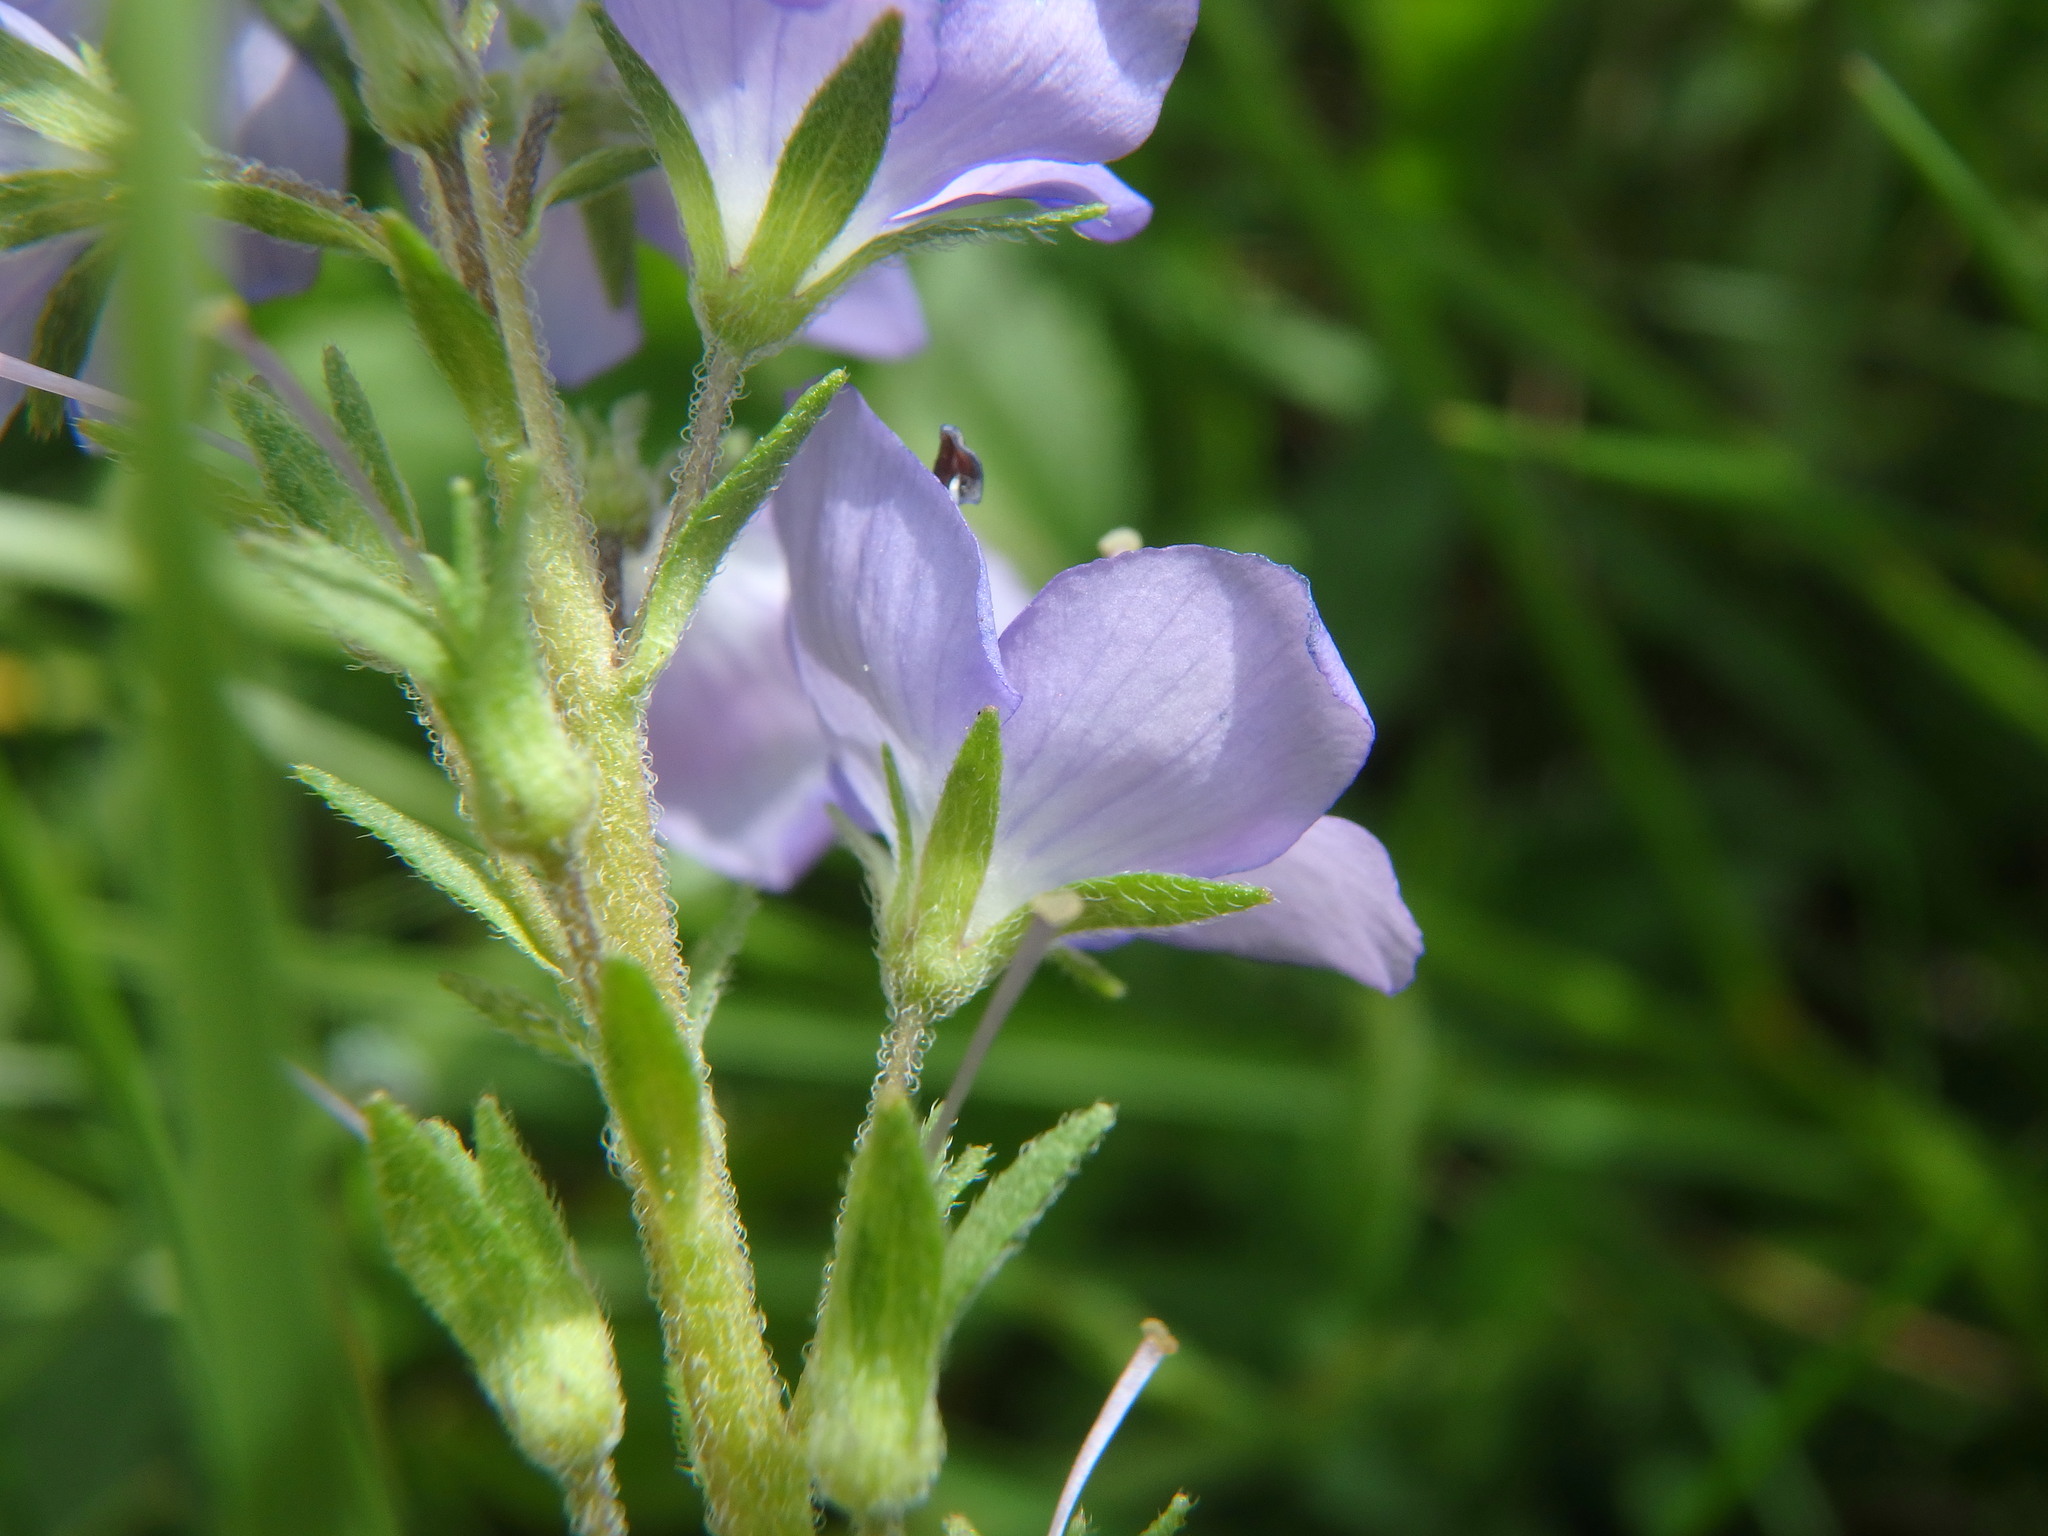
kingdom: Plantae
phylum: Tracheophyta
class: Magnoliopsida
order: Lamiales
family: Plantaginaceae
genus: Veronica
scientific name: Veronica teucrium
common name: Large speedwell
